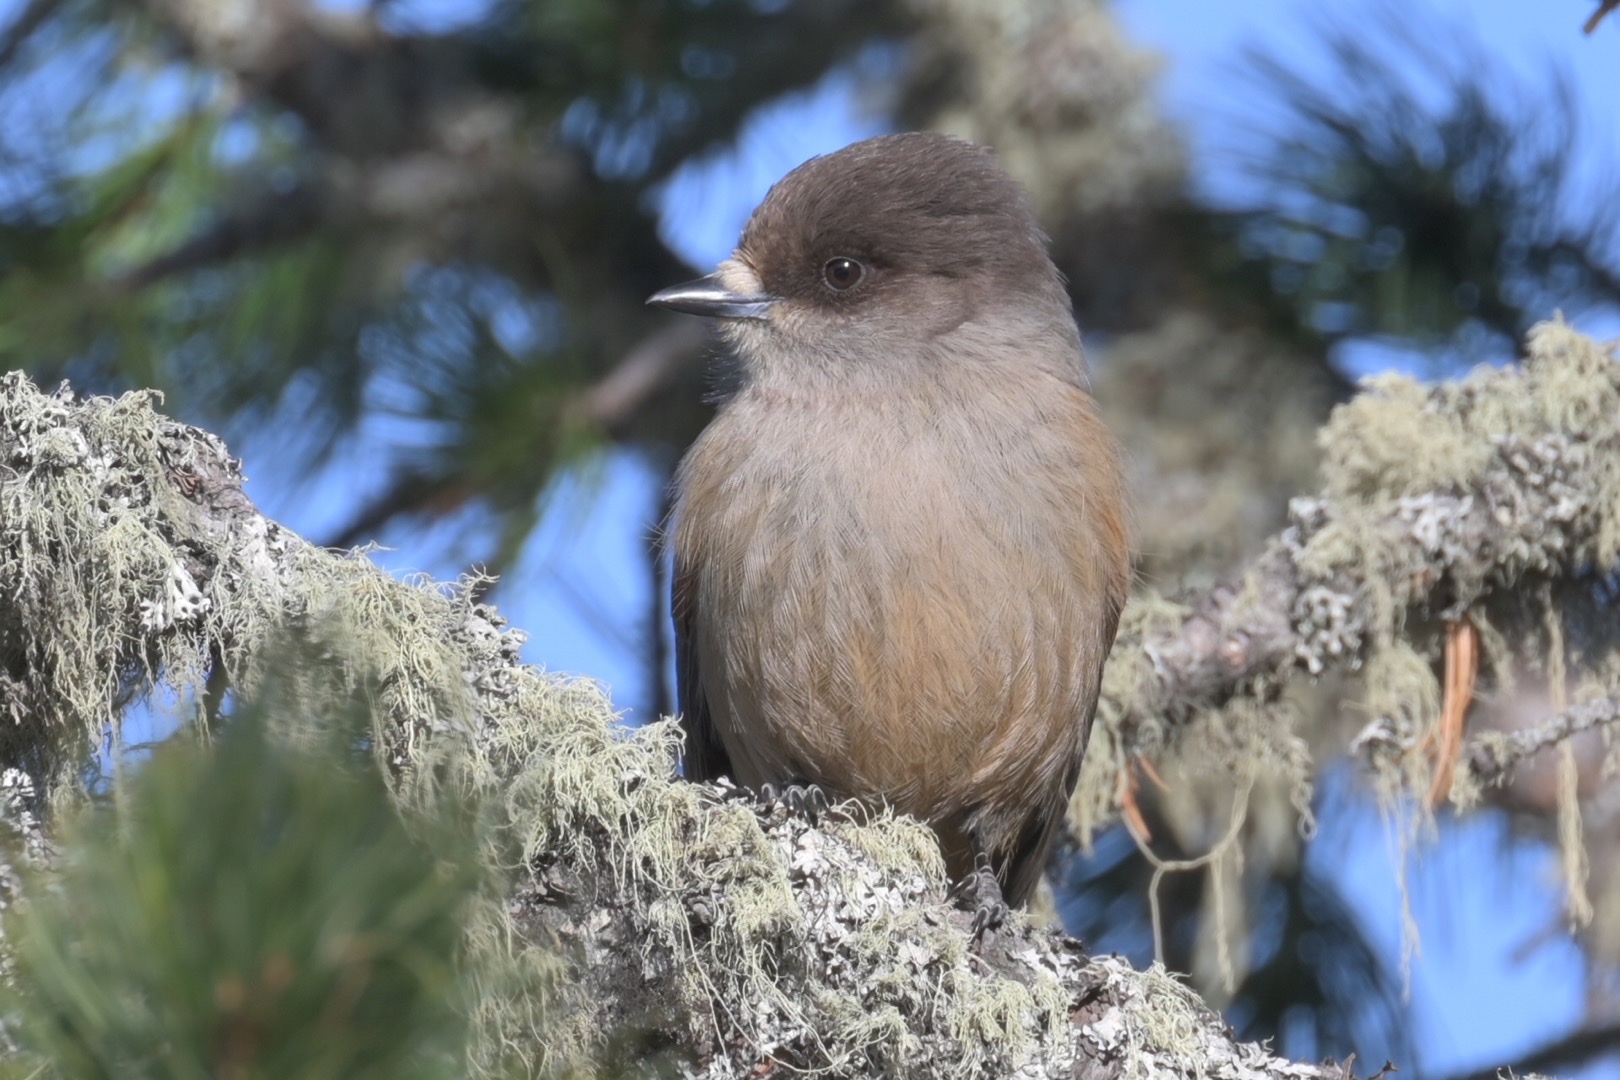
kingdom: Animalia
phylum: Chordata
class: Aves
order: Passeriformes
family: Corvidae
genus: Perisoreus
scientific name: Perisoreus infaustus
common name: Siberian jay
